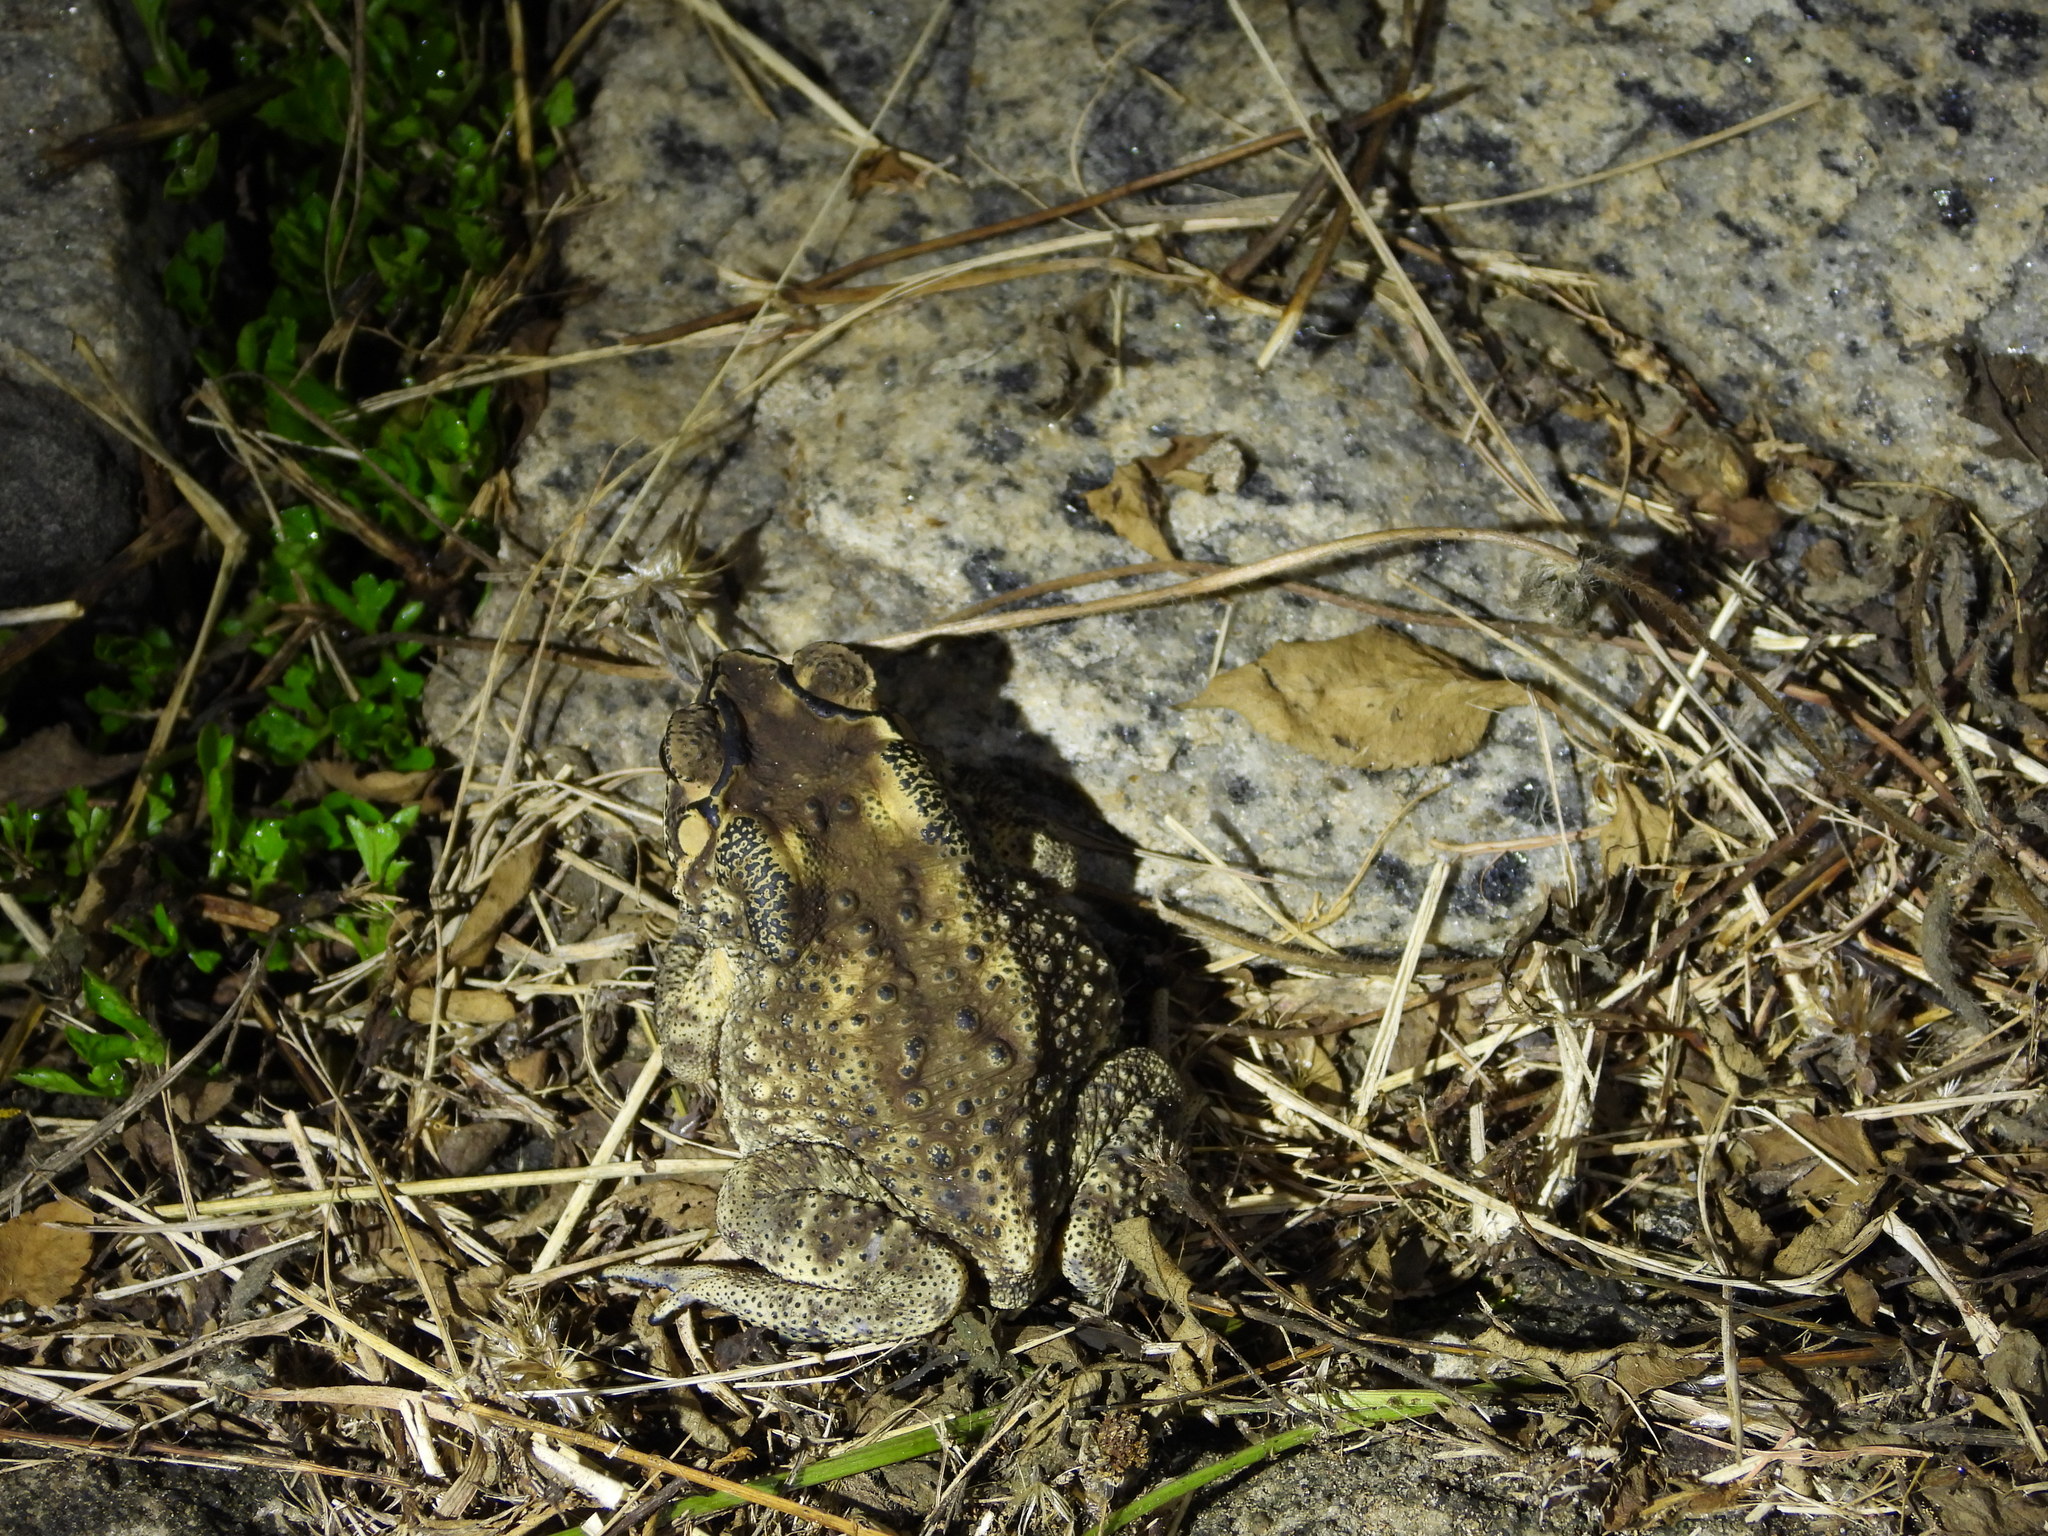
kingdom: Animalia
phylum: Chordata
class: Amphibia
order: Anura
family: Bufonidae
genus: Duttaphrynus
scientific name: Duttaphrynus melanostictus
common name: Common sunda toad
